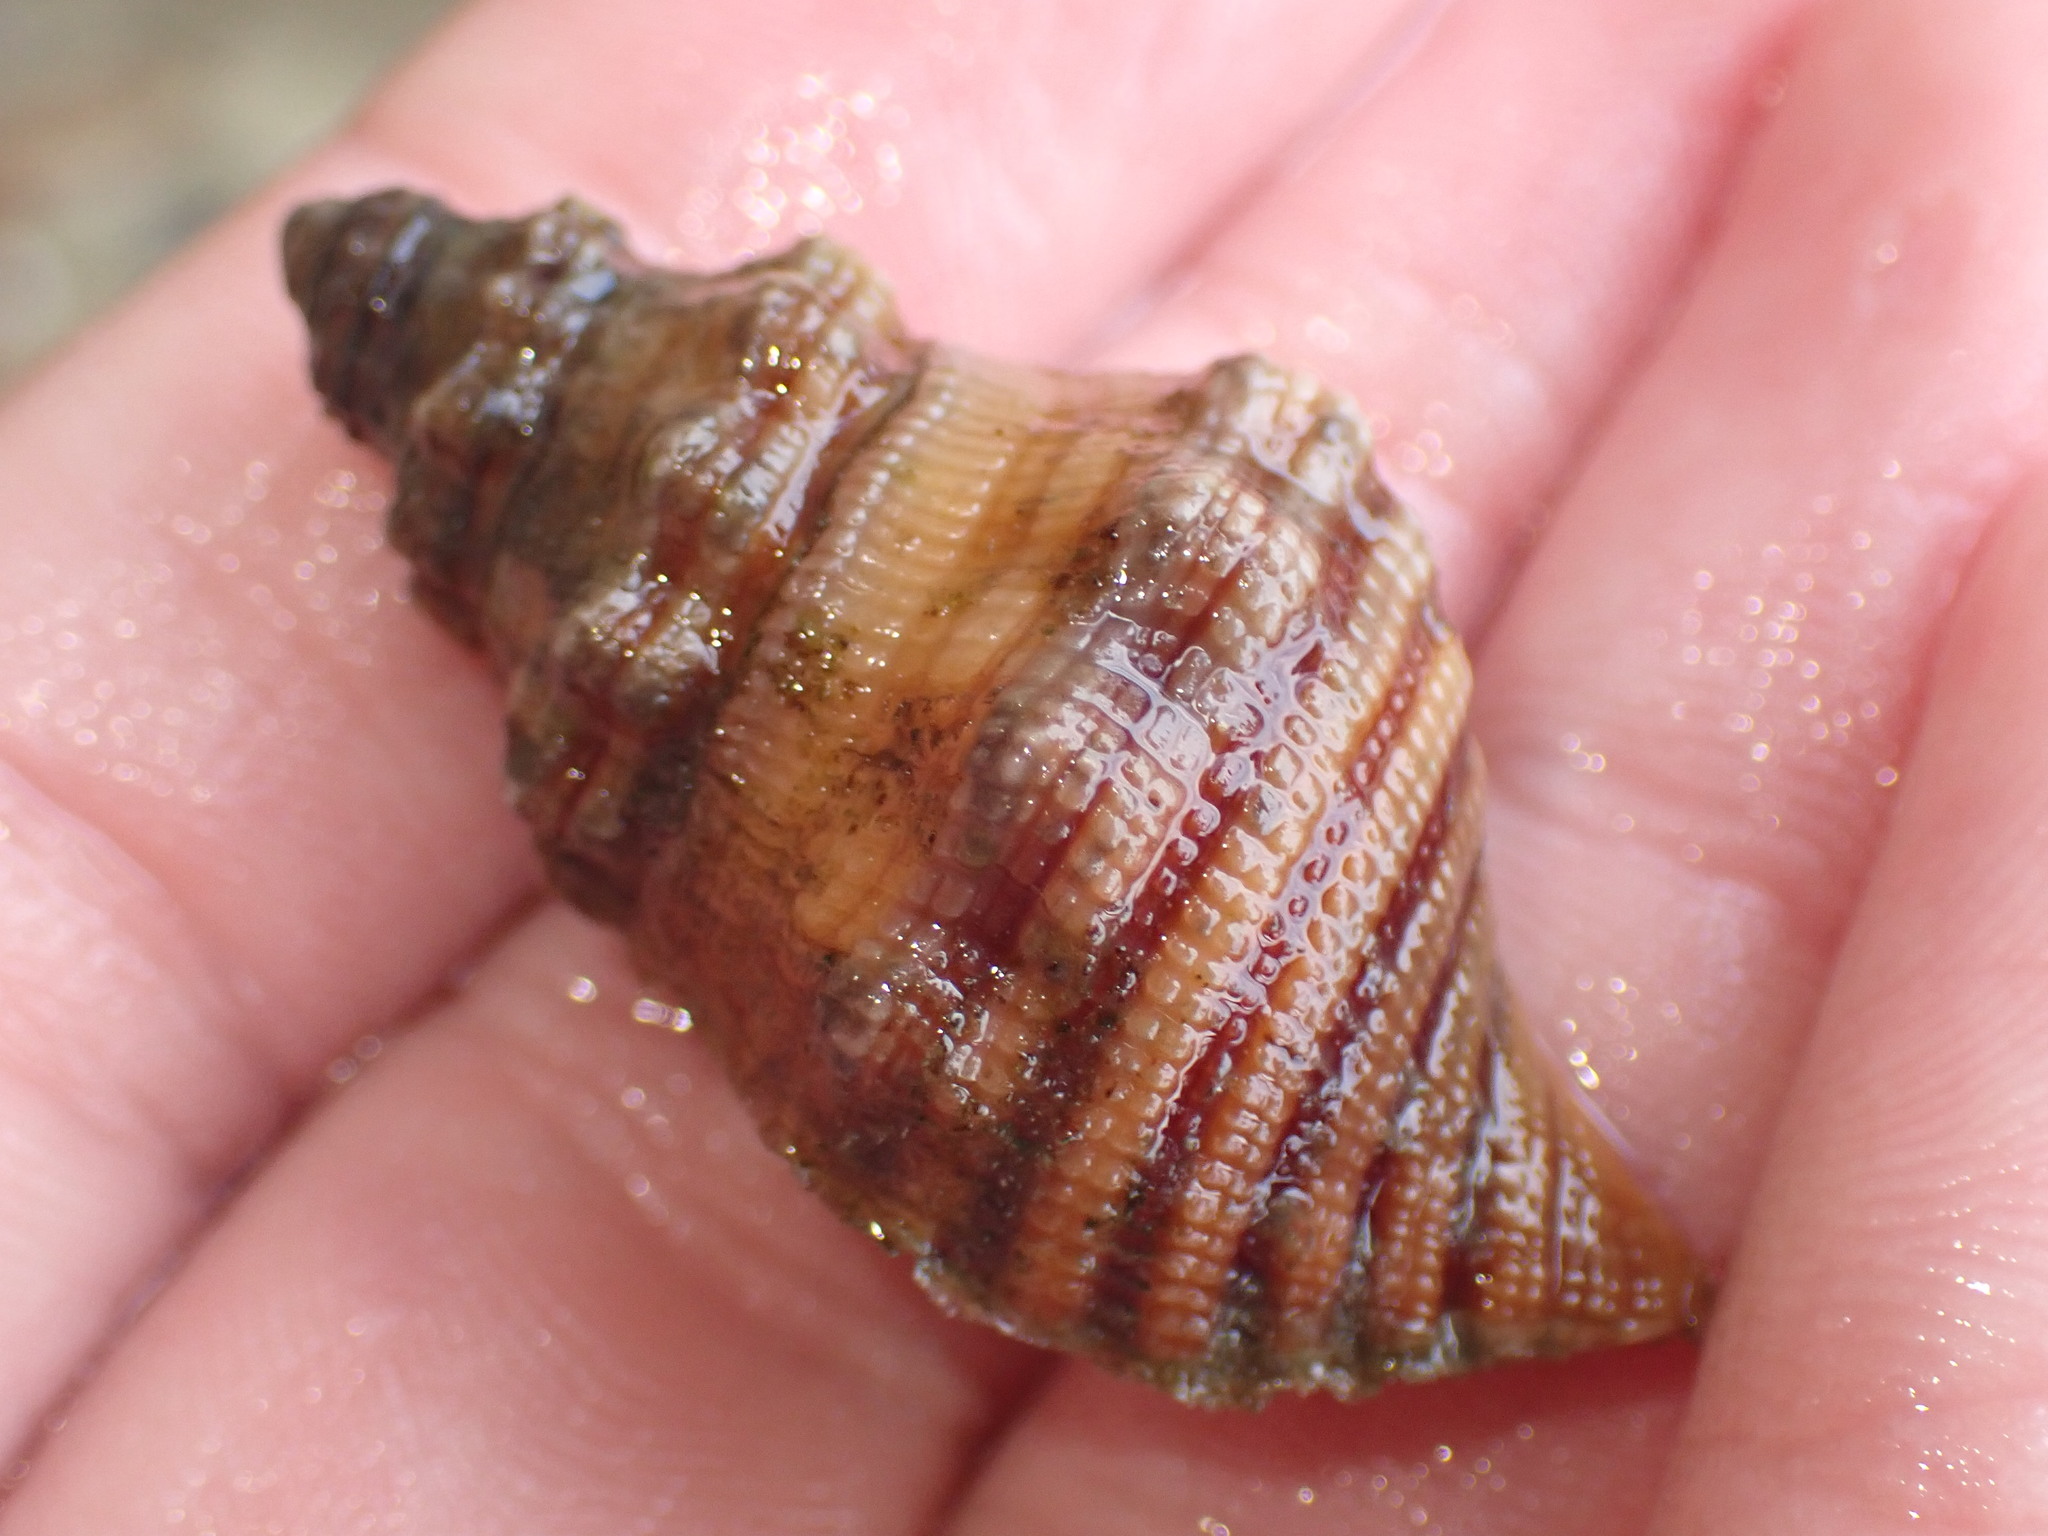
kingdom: Animalia
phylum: Mollusca
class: Gastropoda
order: Littorinimorpha
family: Cymatiidae
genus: Cabestana
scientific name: Cabestana spengleri
